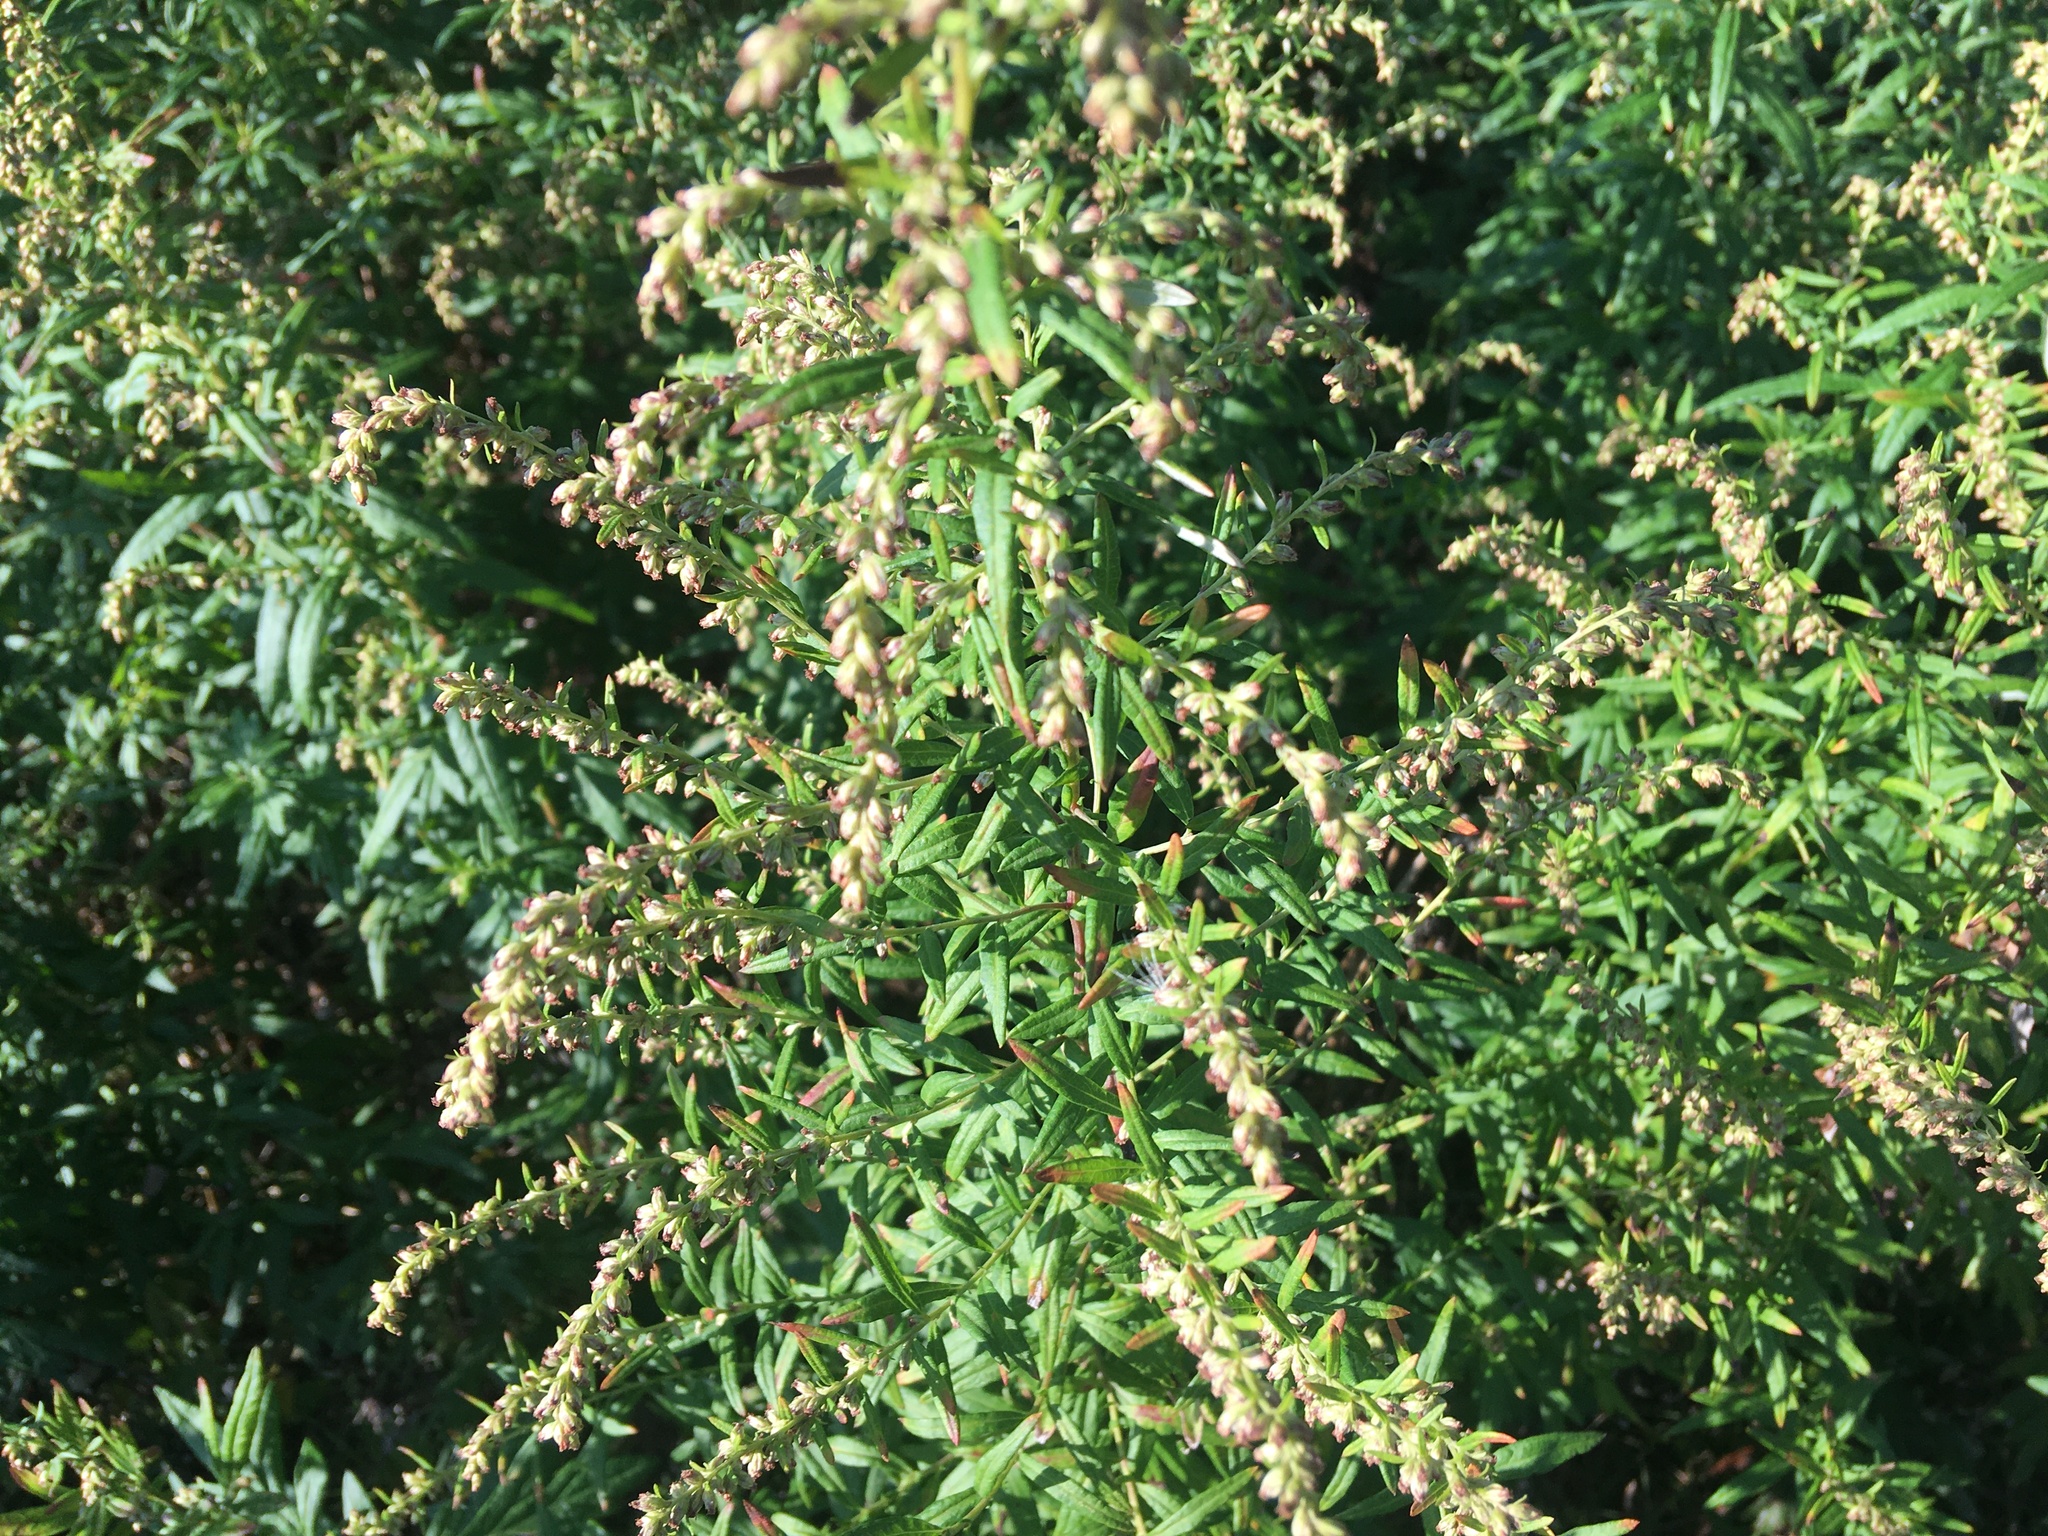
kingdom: Plantae
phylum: Tracheophyta
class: Magnoliopsida
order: Asterales
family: Asteraceae
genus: Artemisia
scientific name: Artemisia vulgaris
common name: Mugwort
